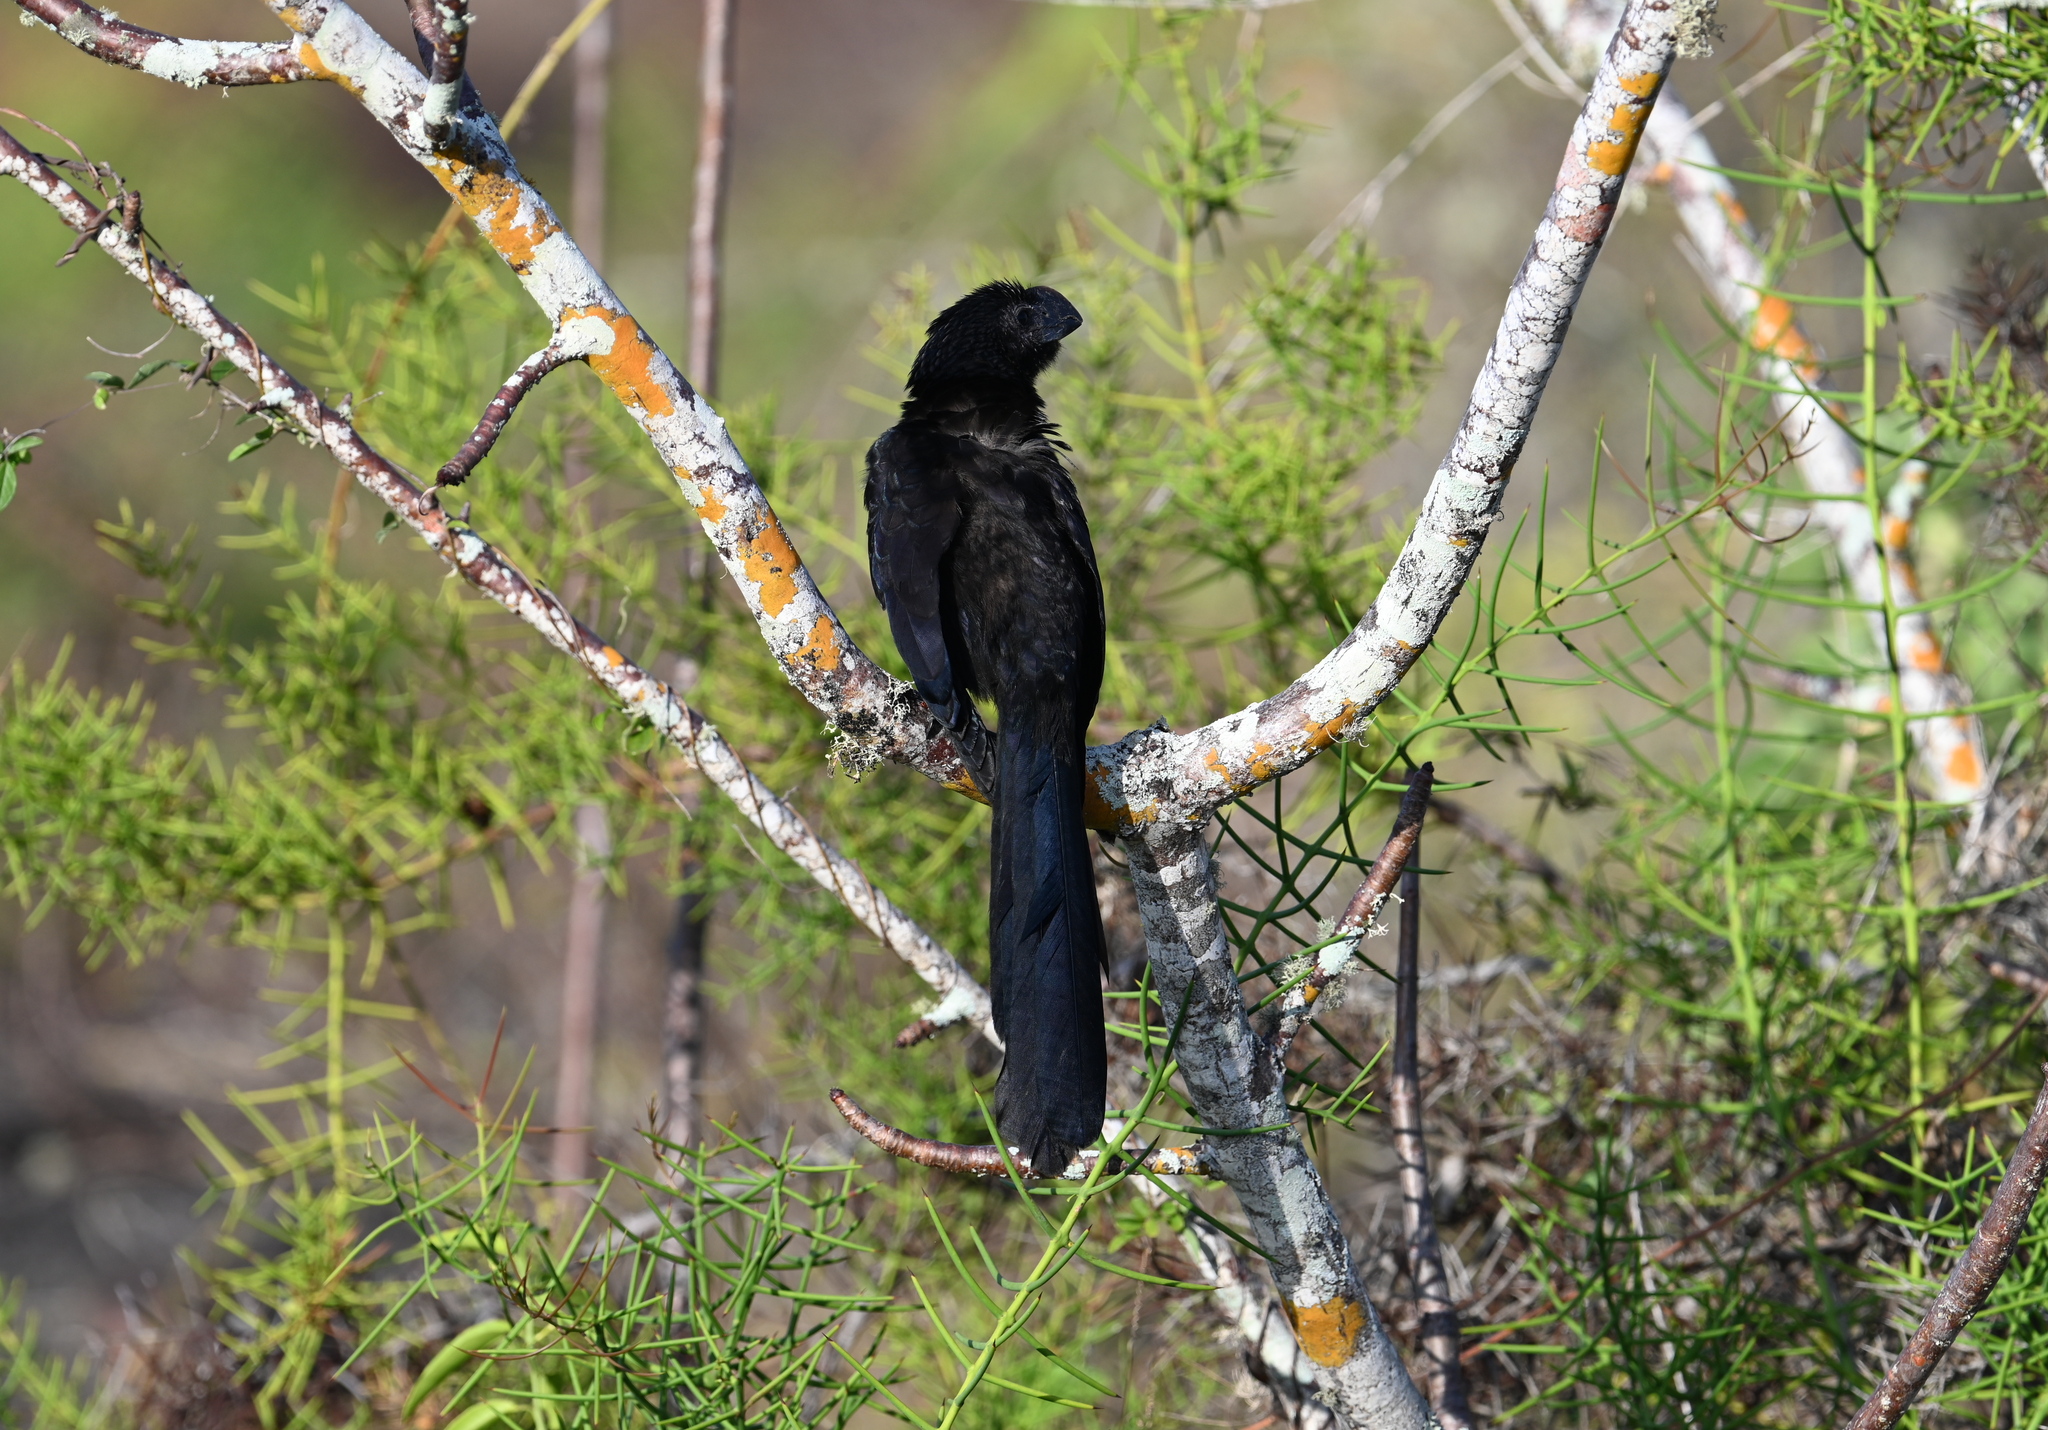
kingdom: Animalia
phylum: Chordata
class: Aves
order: Cuculiformes
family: Cuculidae
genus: Crotophaga
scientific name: Crotophaga ani
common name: Smooth-billed ani
